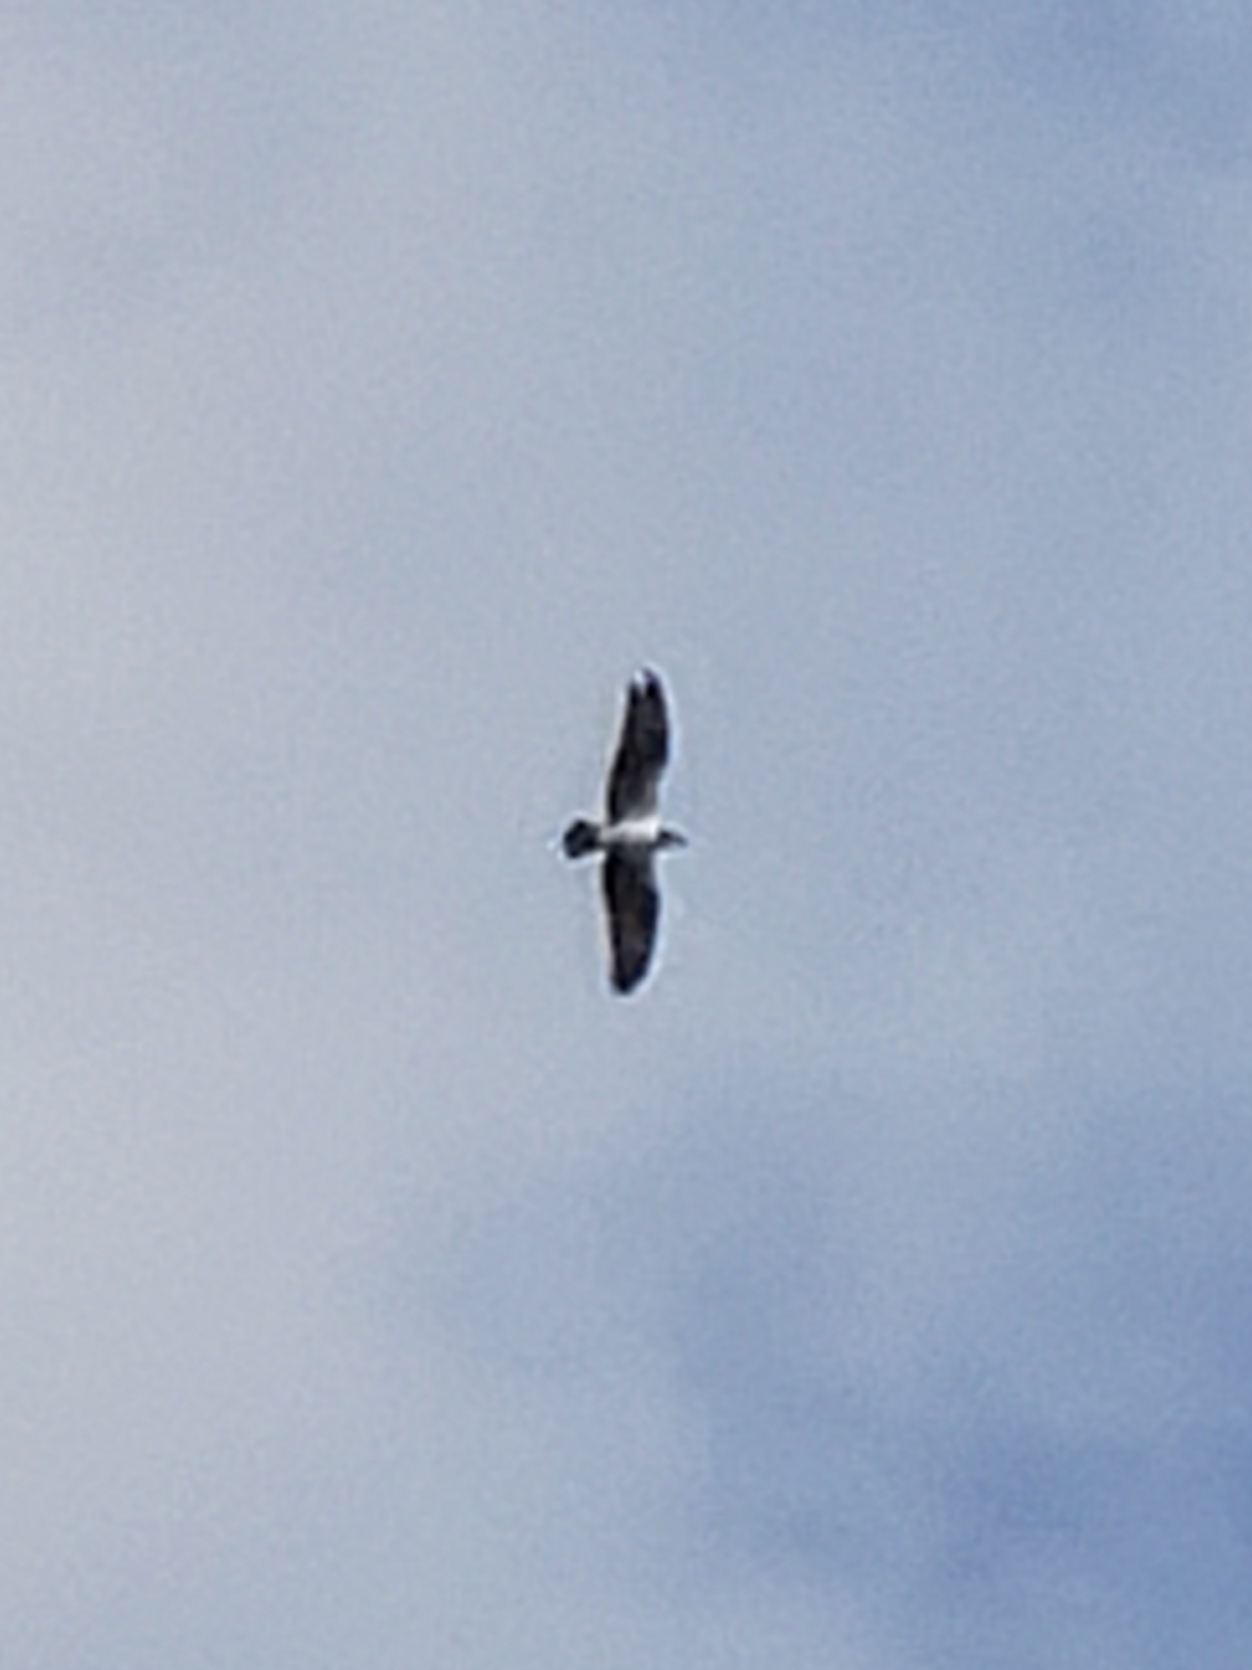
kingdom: Animalia
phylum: Chordata
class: Aves
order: Accipitriformes
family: Pandionidae
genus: Pandion
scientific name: Pandion haliaetus
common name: Osprey
